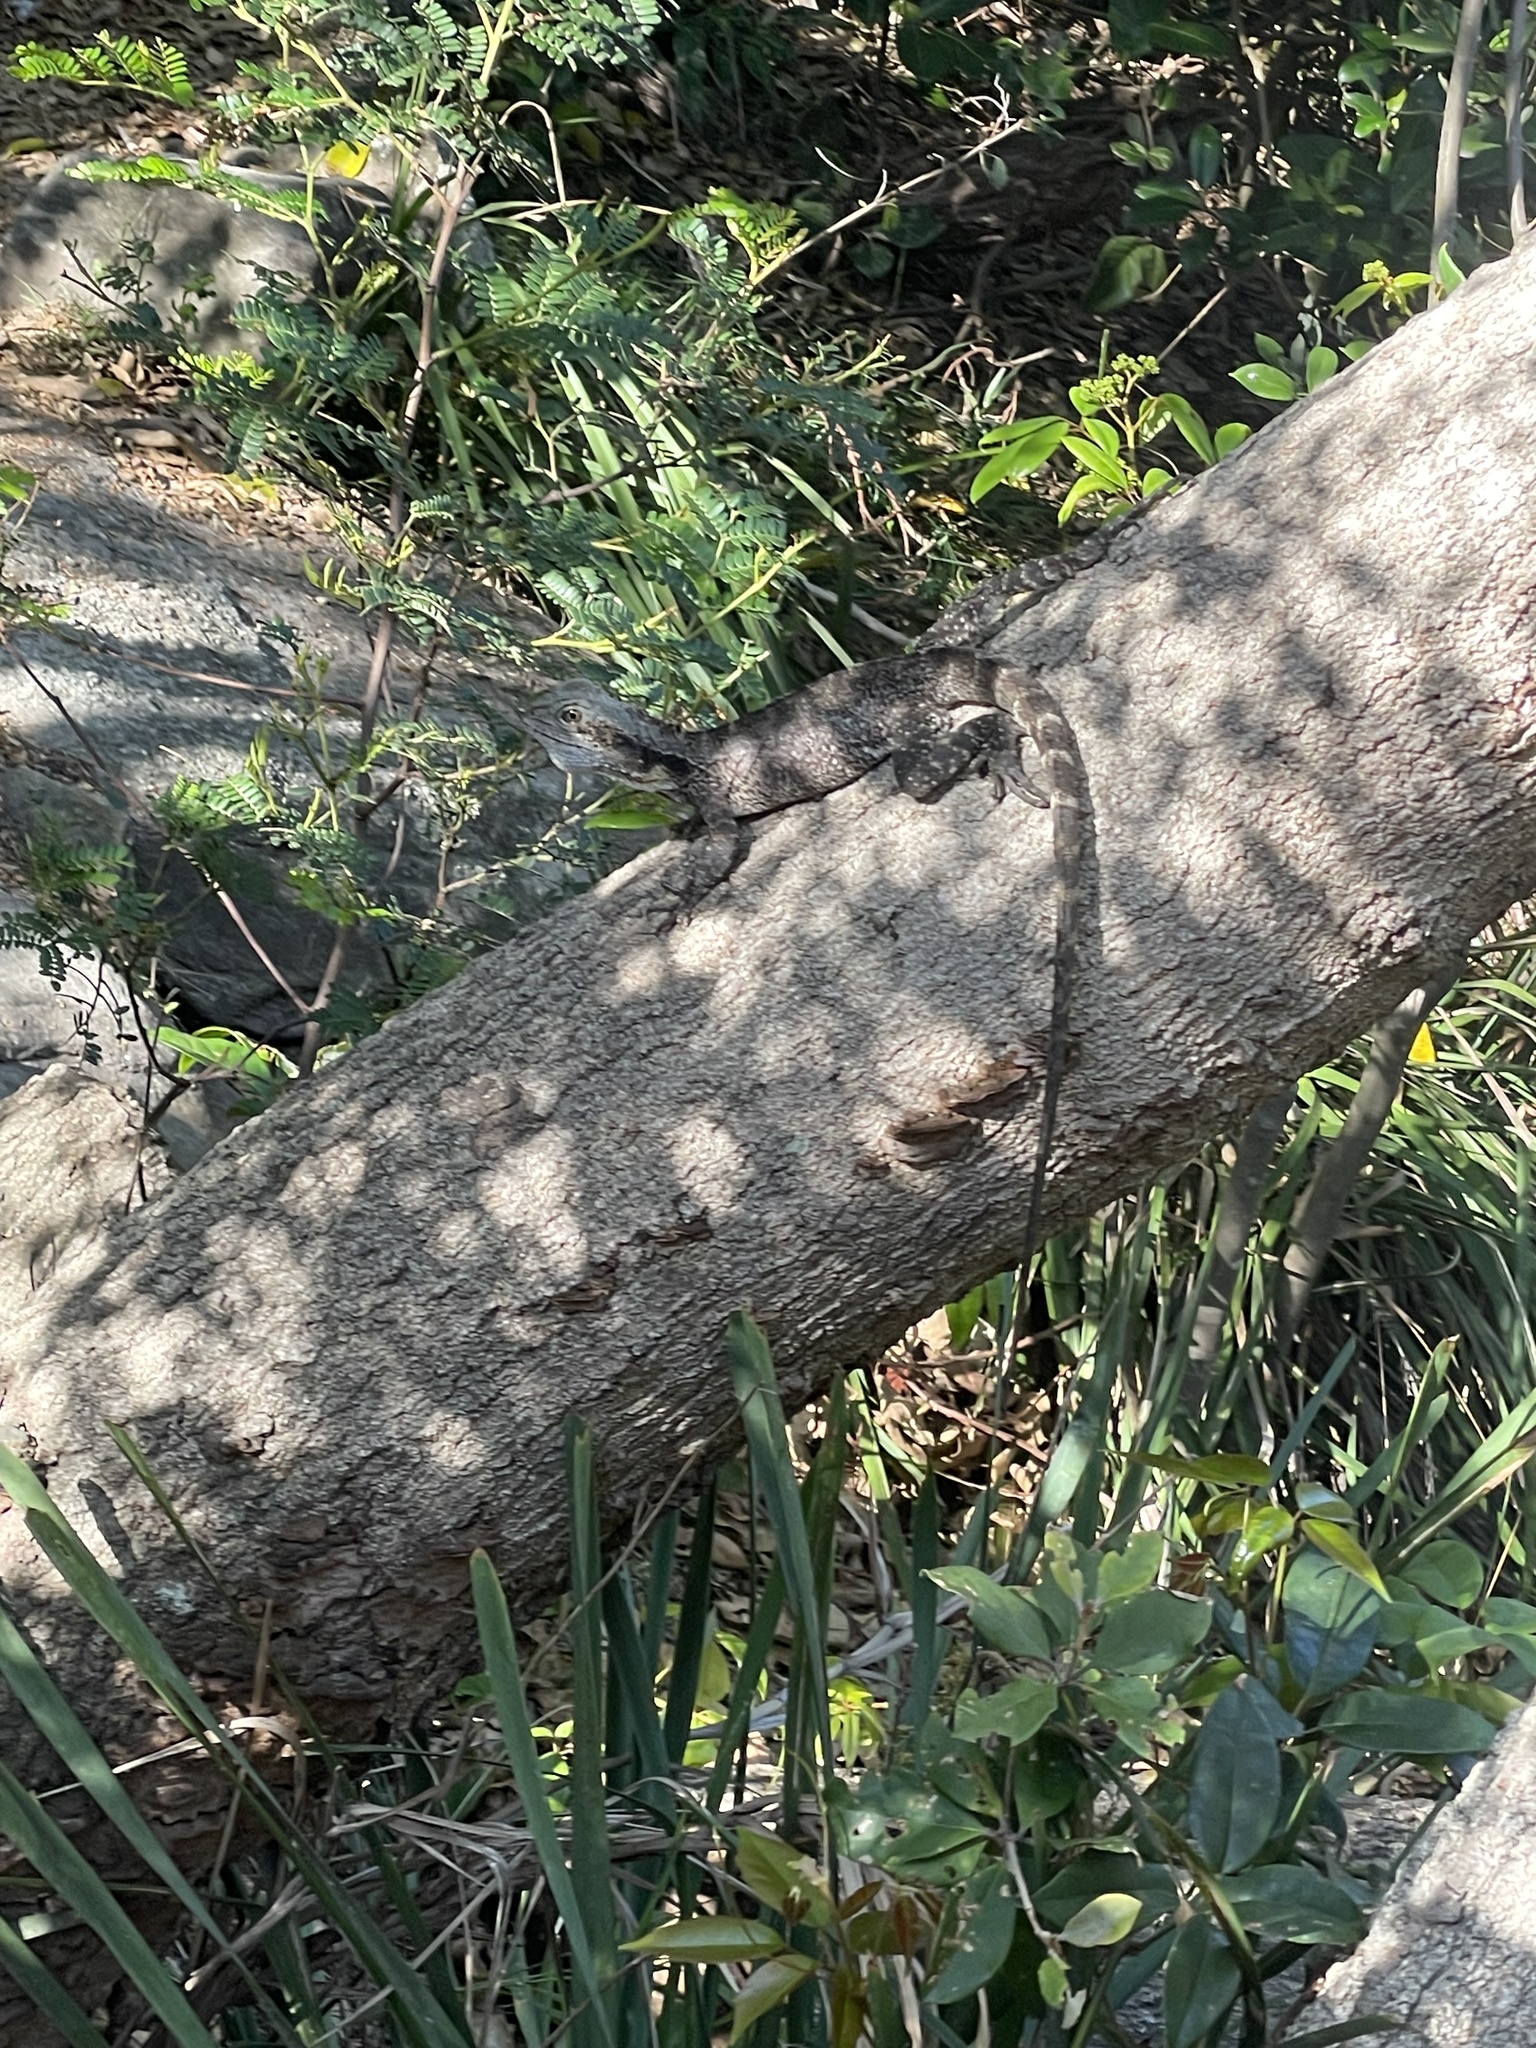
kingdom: Animalia
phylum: Chordata
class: Squamata
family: Agamidae
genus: Intellagama
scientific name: Intellagama lesueurii
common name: Eastern water dragon
